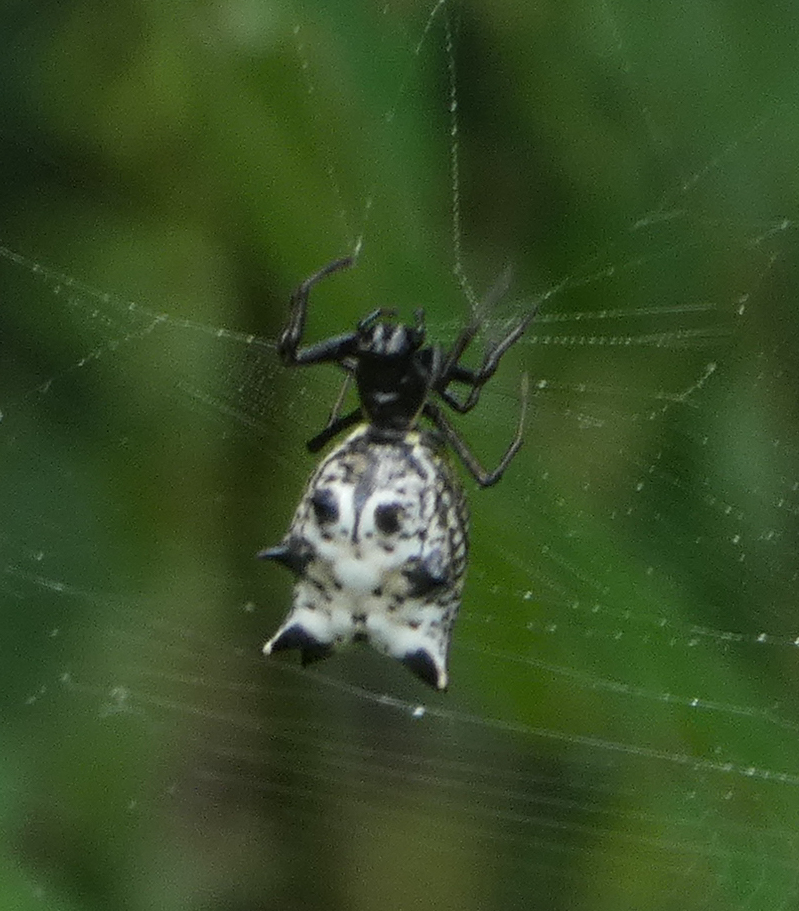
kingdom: Animalia
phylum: Arthropoda
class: Arachnida
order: Araneae
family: Araneidae
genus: Micrathena
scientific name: Micrathena gracilis
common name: Orb weavers
